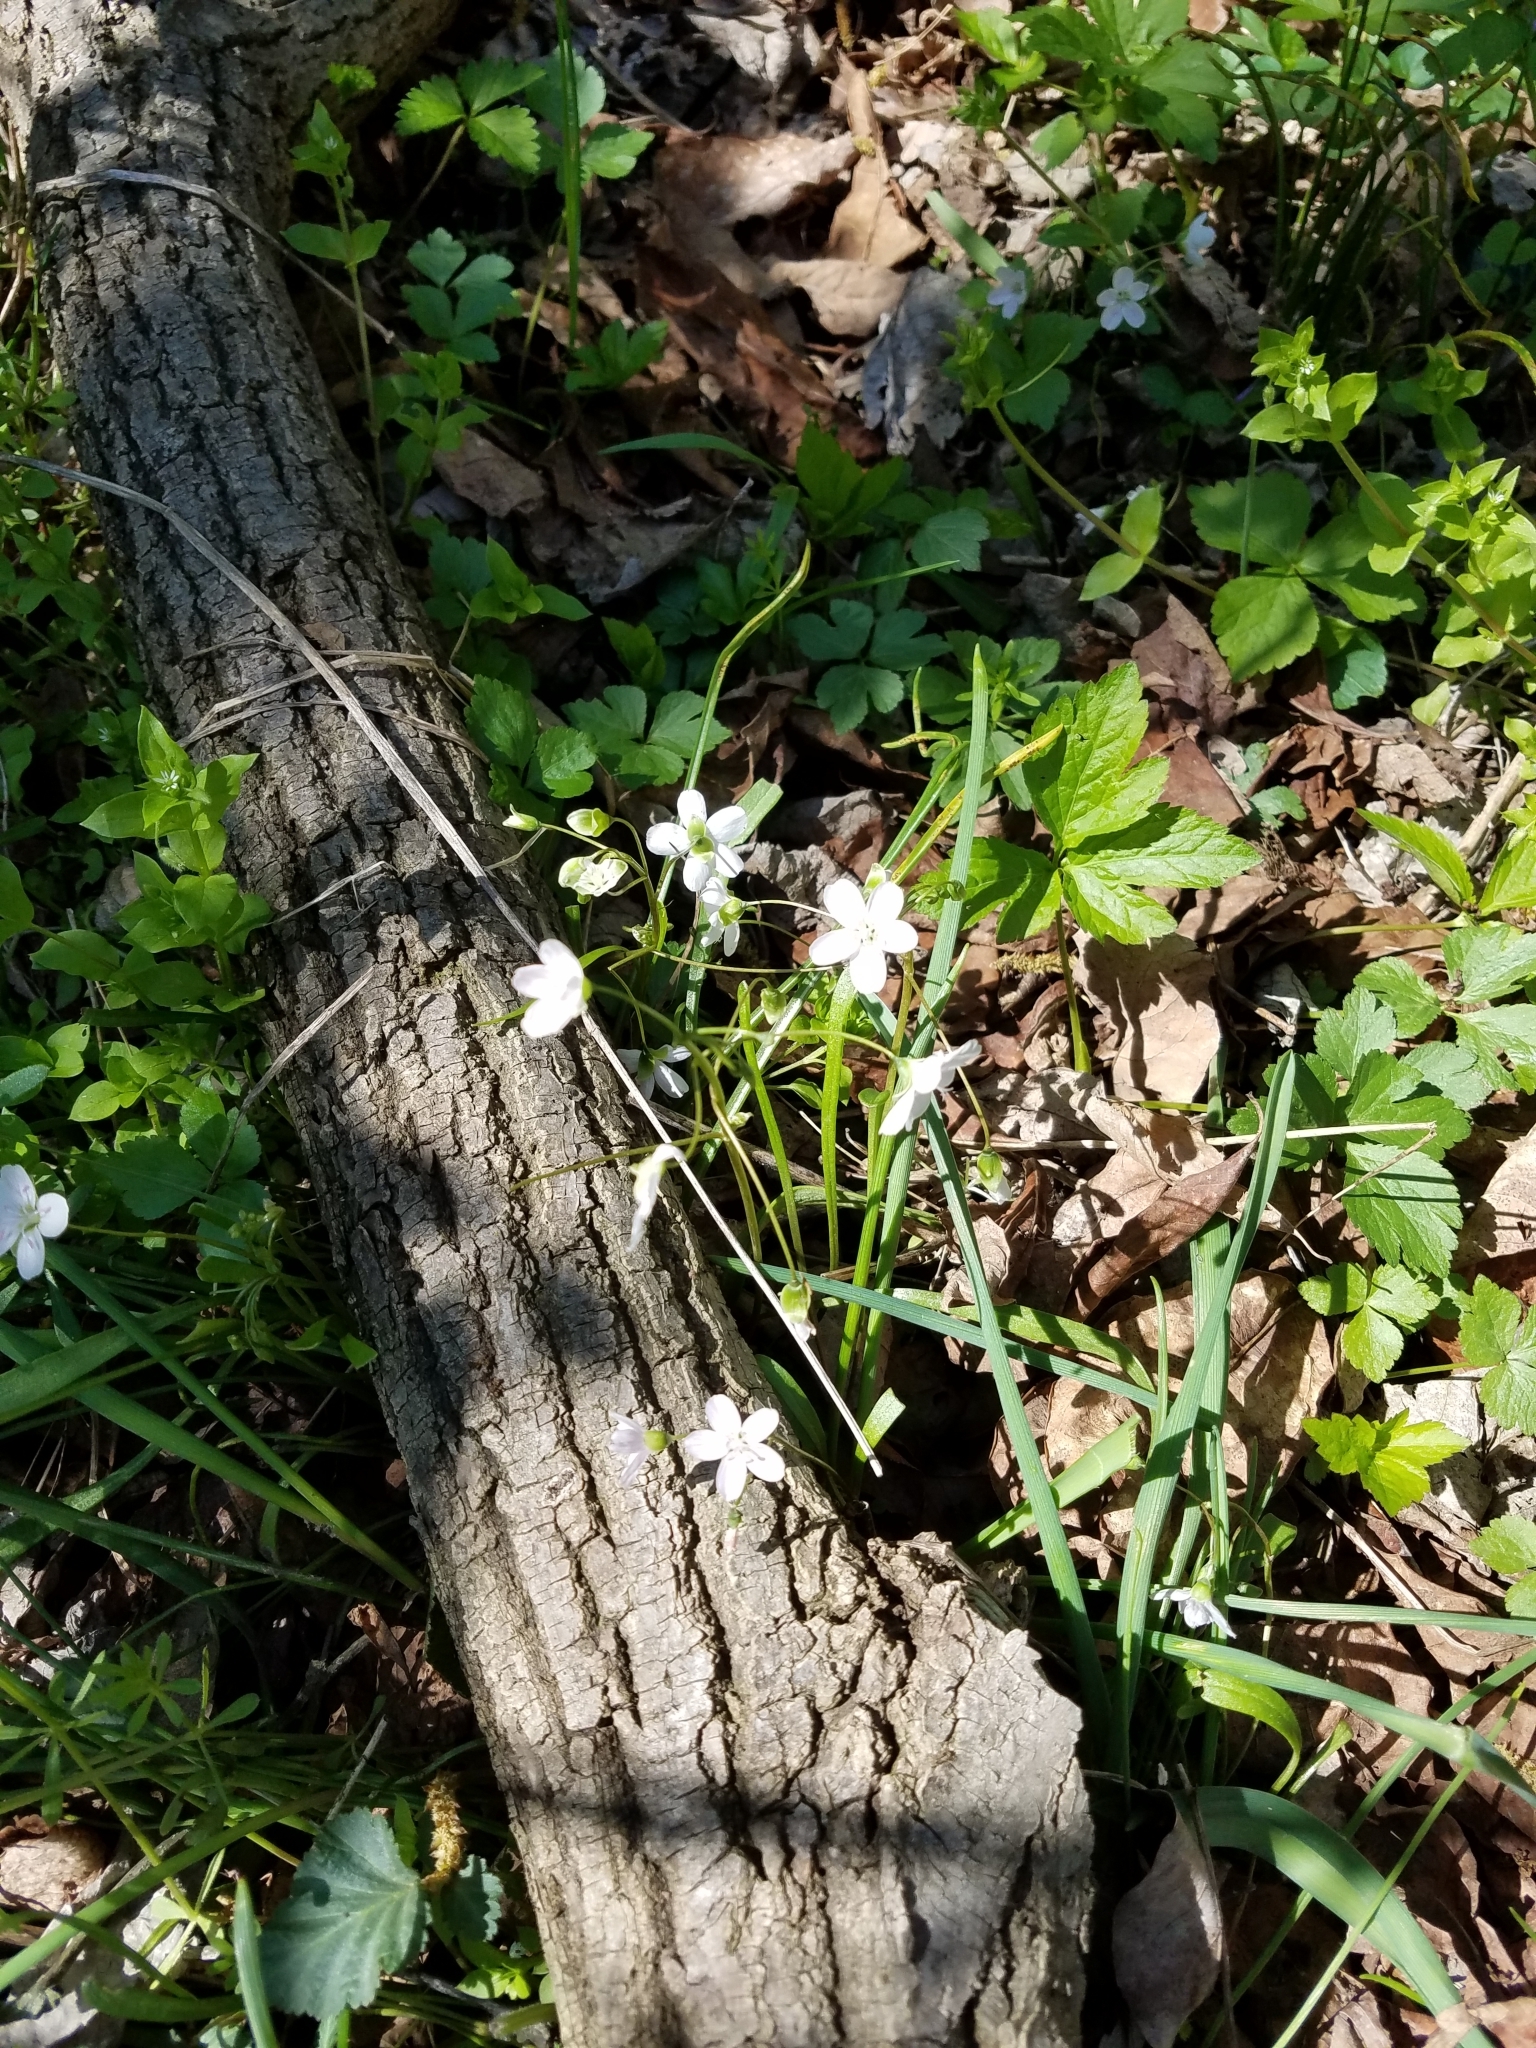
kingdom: Plantae
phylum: Tracheophyta
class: Magnoliopsida
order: Caryophyllales
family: Montiaceae
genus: Claytonia
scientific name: Claytonia virginica
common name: Virginia springbeauty
